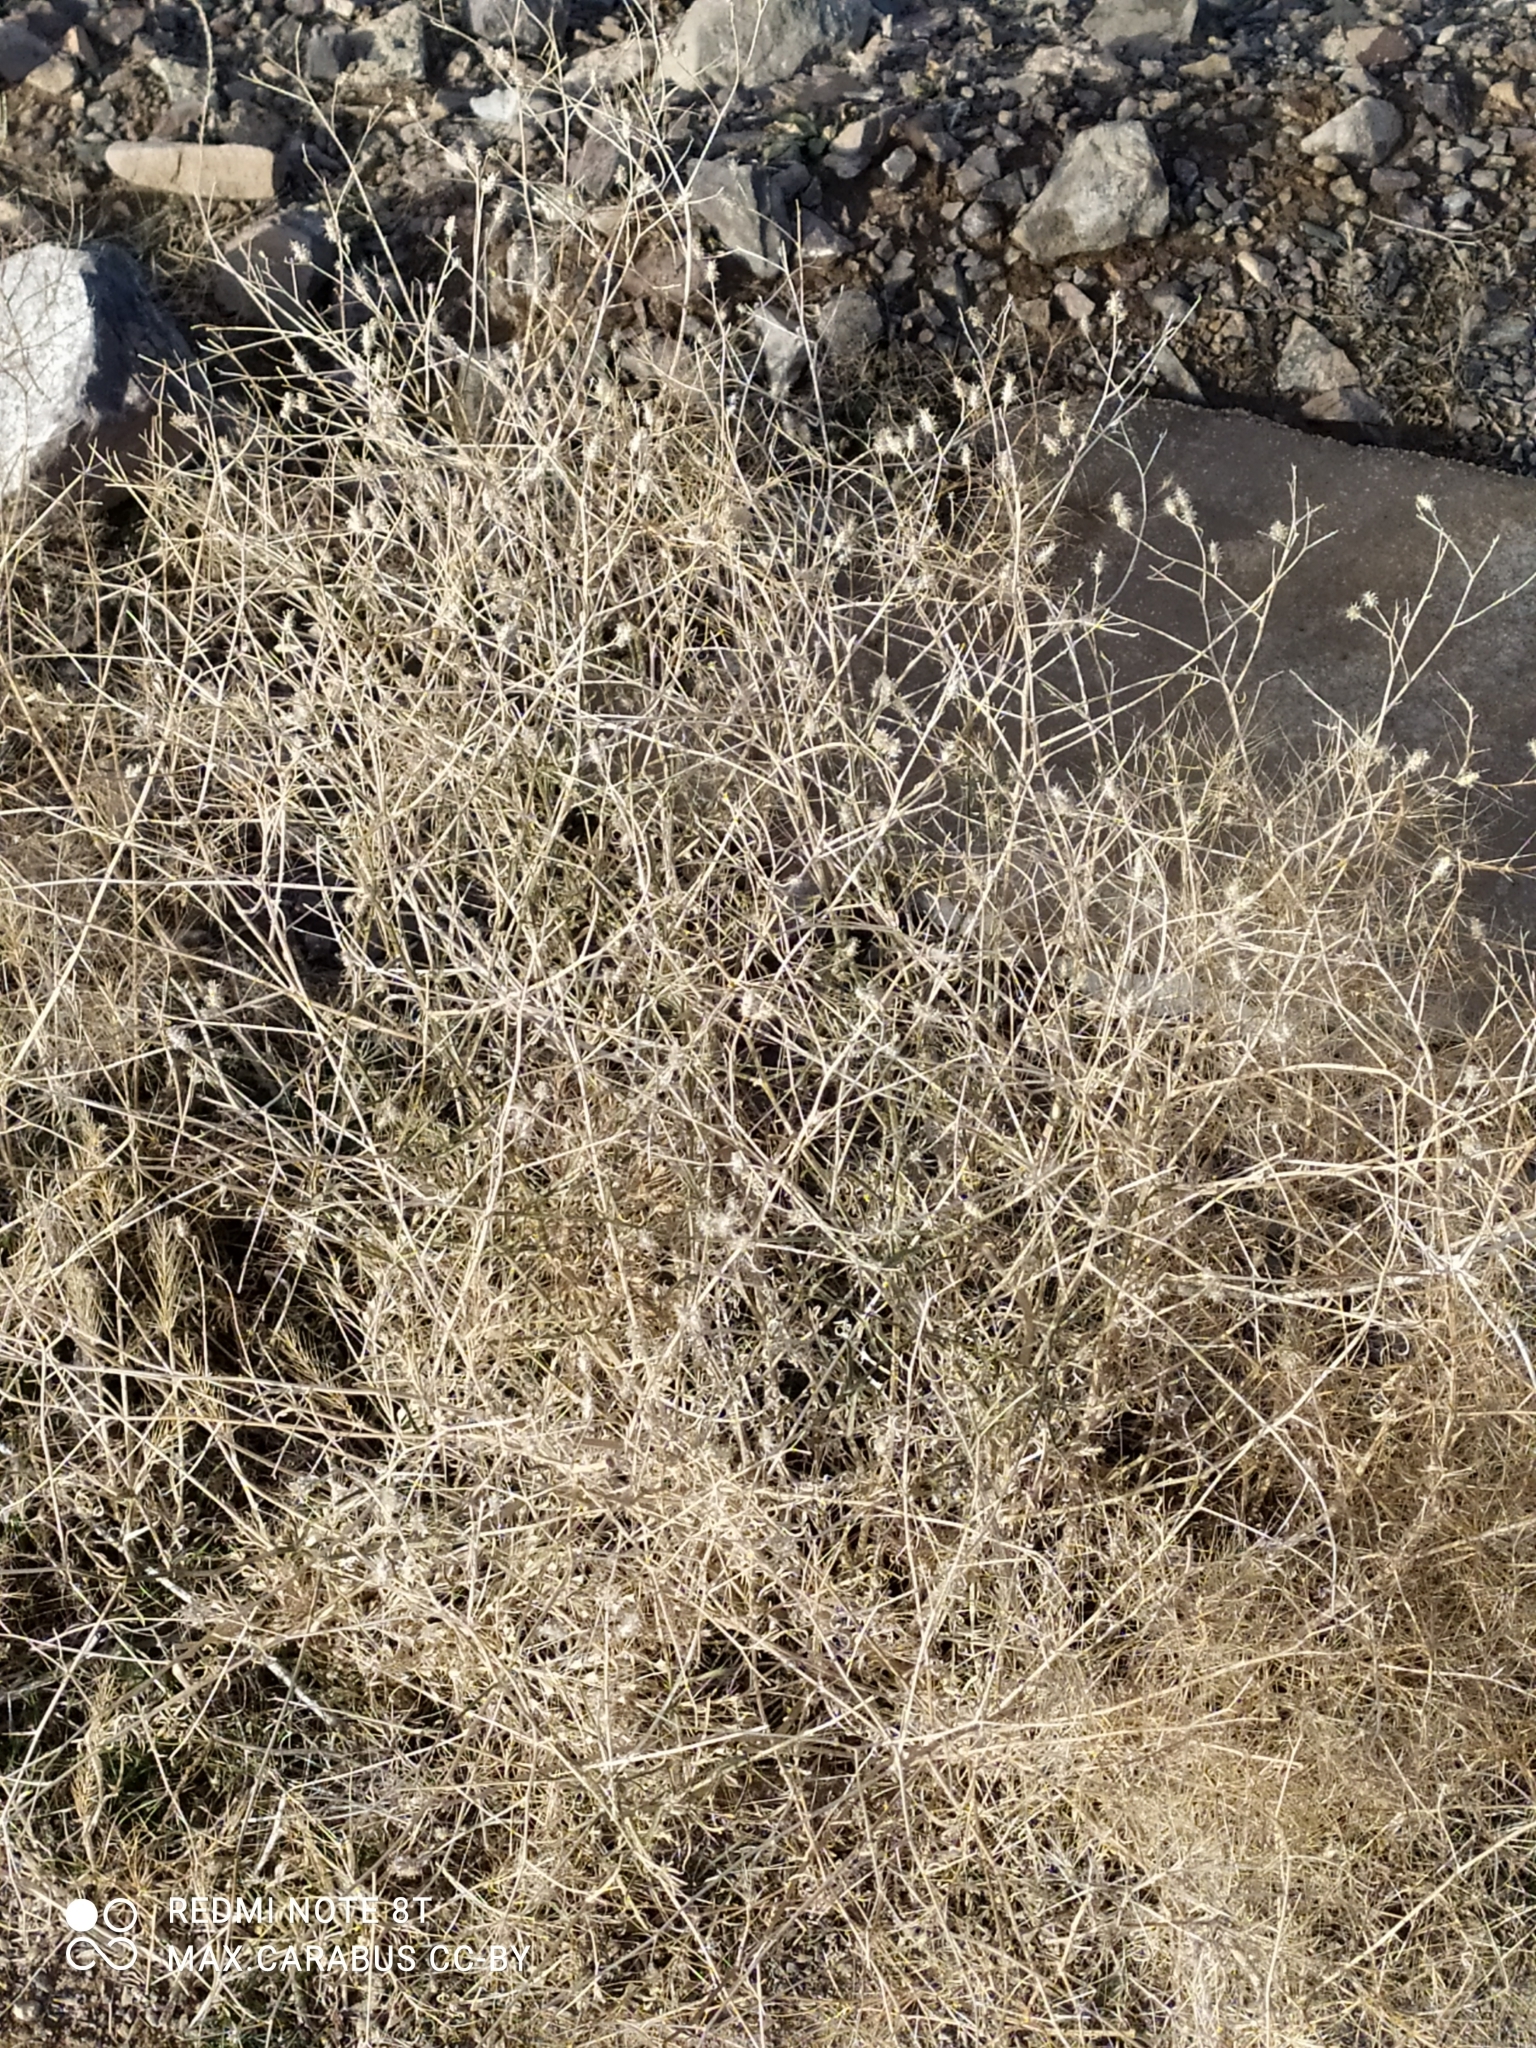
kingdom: Plantae
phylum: Tracheophyta
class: Magnoliopsida
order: Asterales
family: Asteraceae
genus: Centaurea
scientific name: Centaurea virgata
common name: Squarrose knapweed
